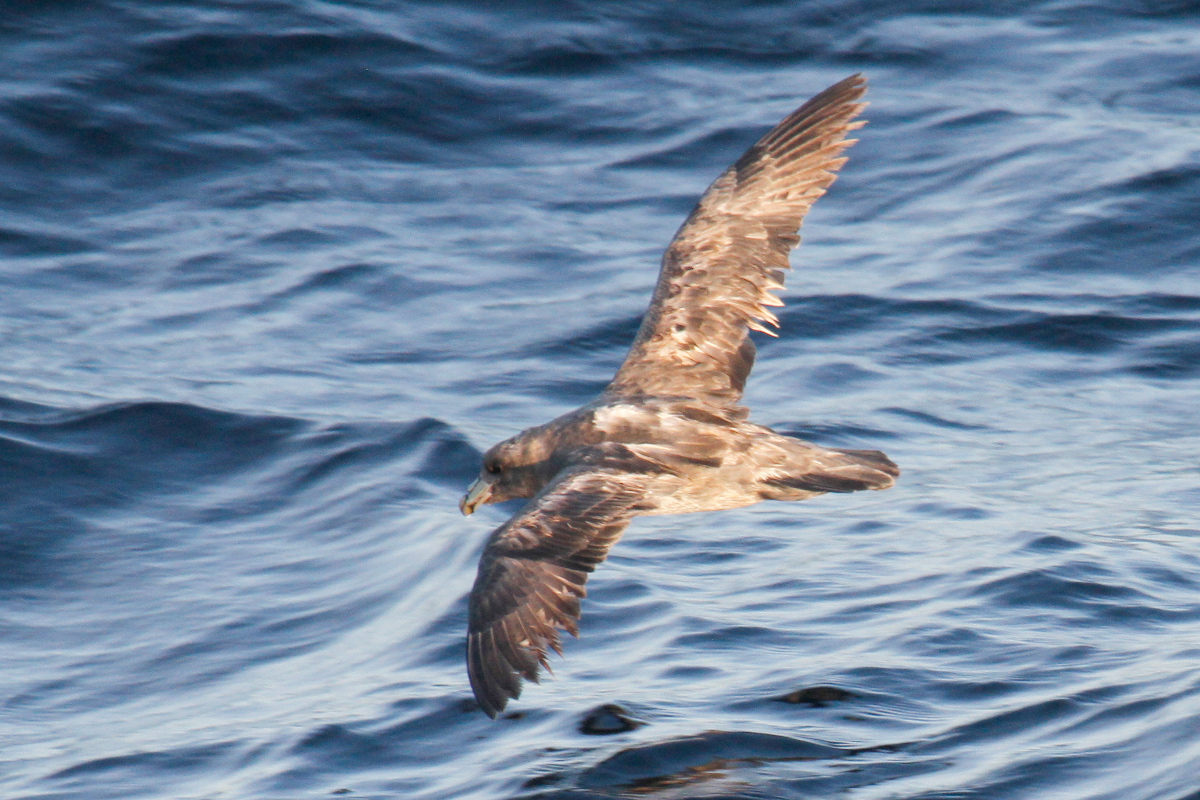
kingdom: Animalia
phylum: Chordata
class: Aves
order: Procellariiformes
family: Procellariidae
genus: Fulmarus
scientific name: Fulmarus glacialis
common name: Northern fulmar
